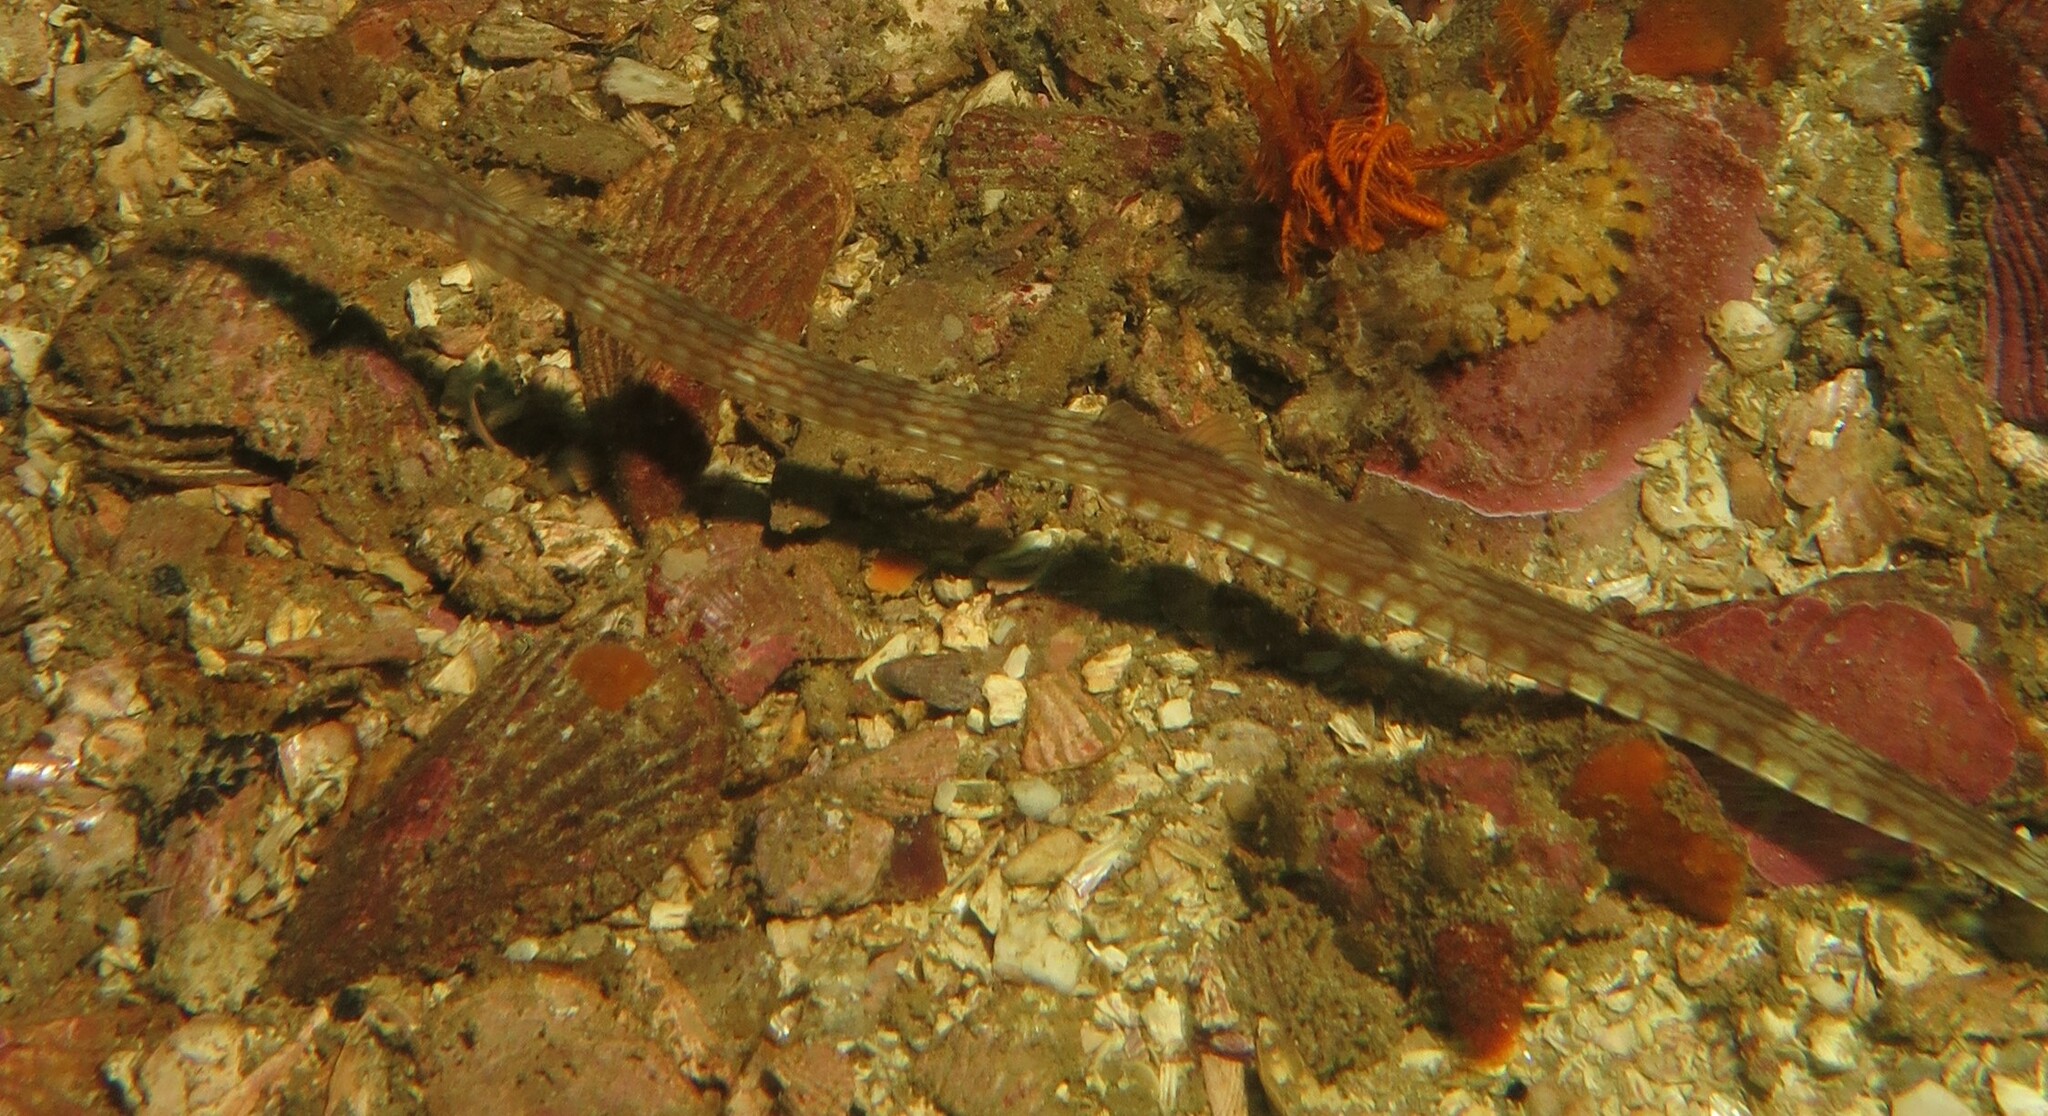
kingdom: Animalia
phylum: Chordata
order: Syngnathiformes
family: Syngnathidae
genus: Syngnathus
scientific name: Syngnathus acus
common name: Greater pipefish
